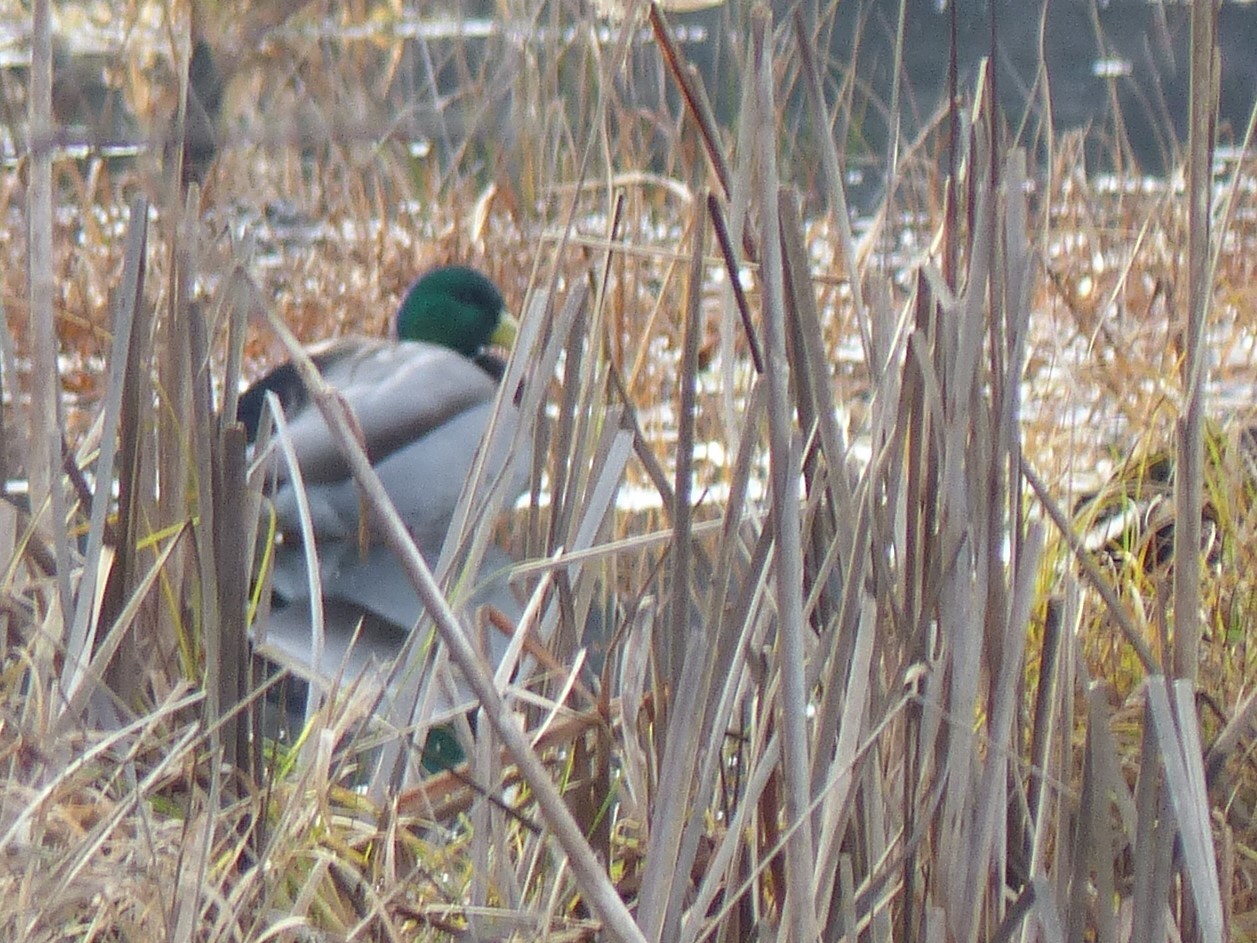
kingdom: Animalia
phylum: Chordata
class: Aves
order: Anseriformes
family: Anatidae
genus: Anas
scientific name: Anas platyrhynchos
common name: Mallard
